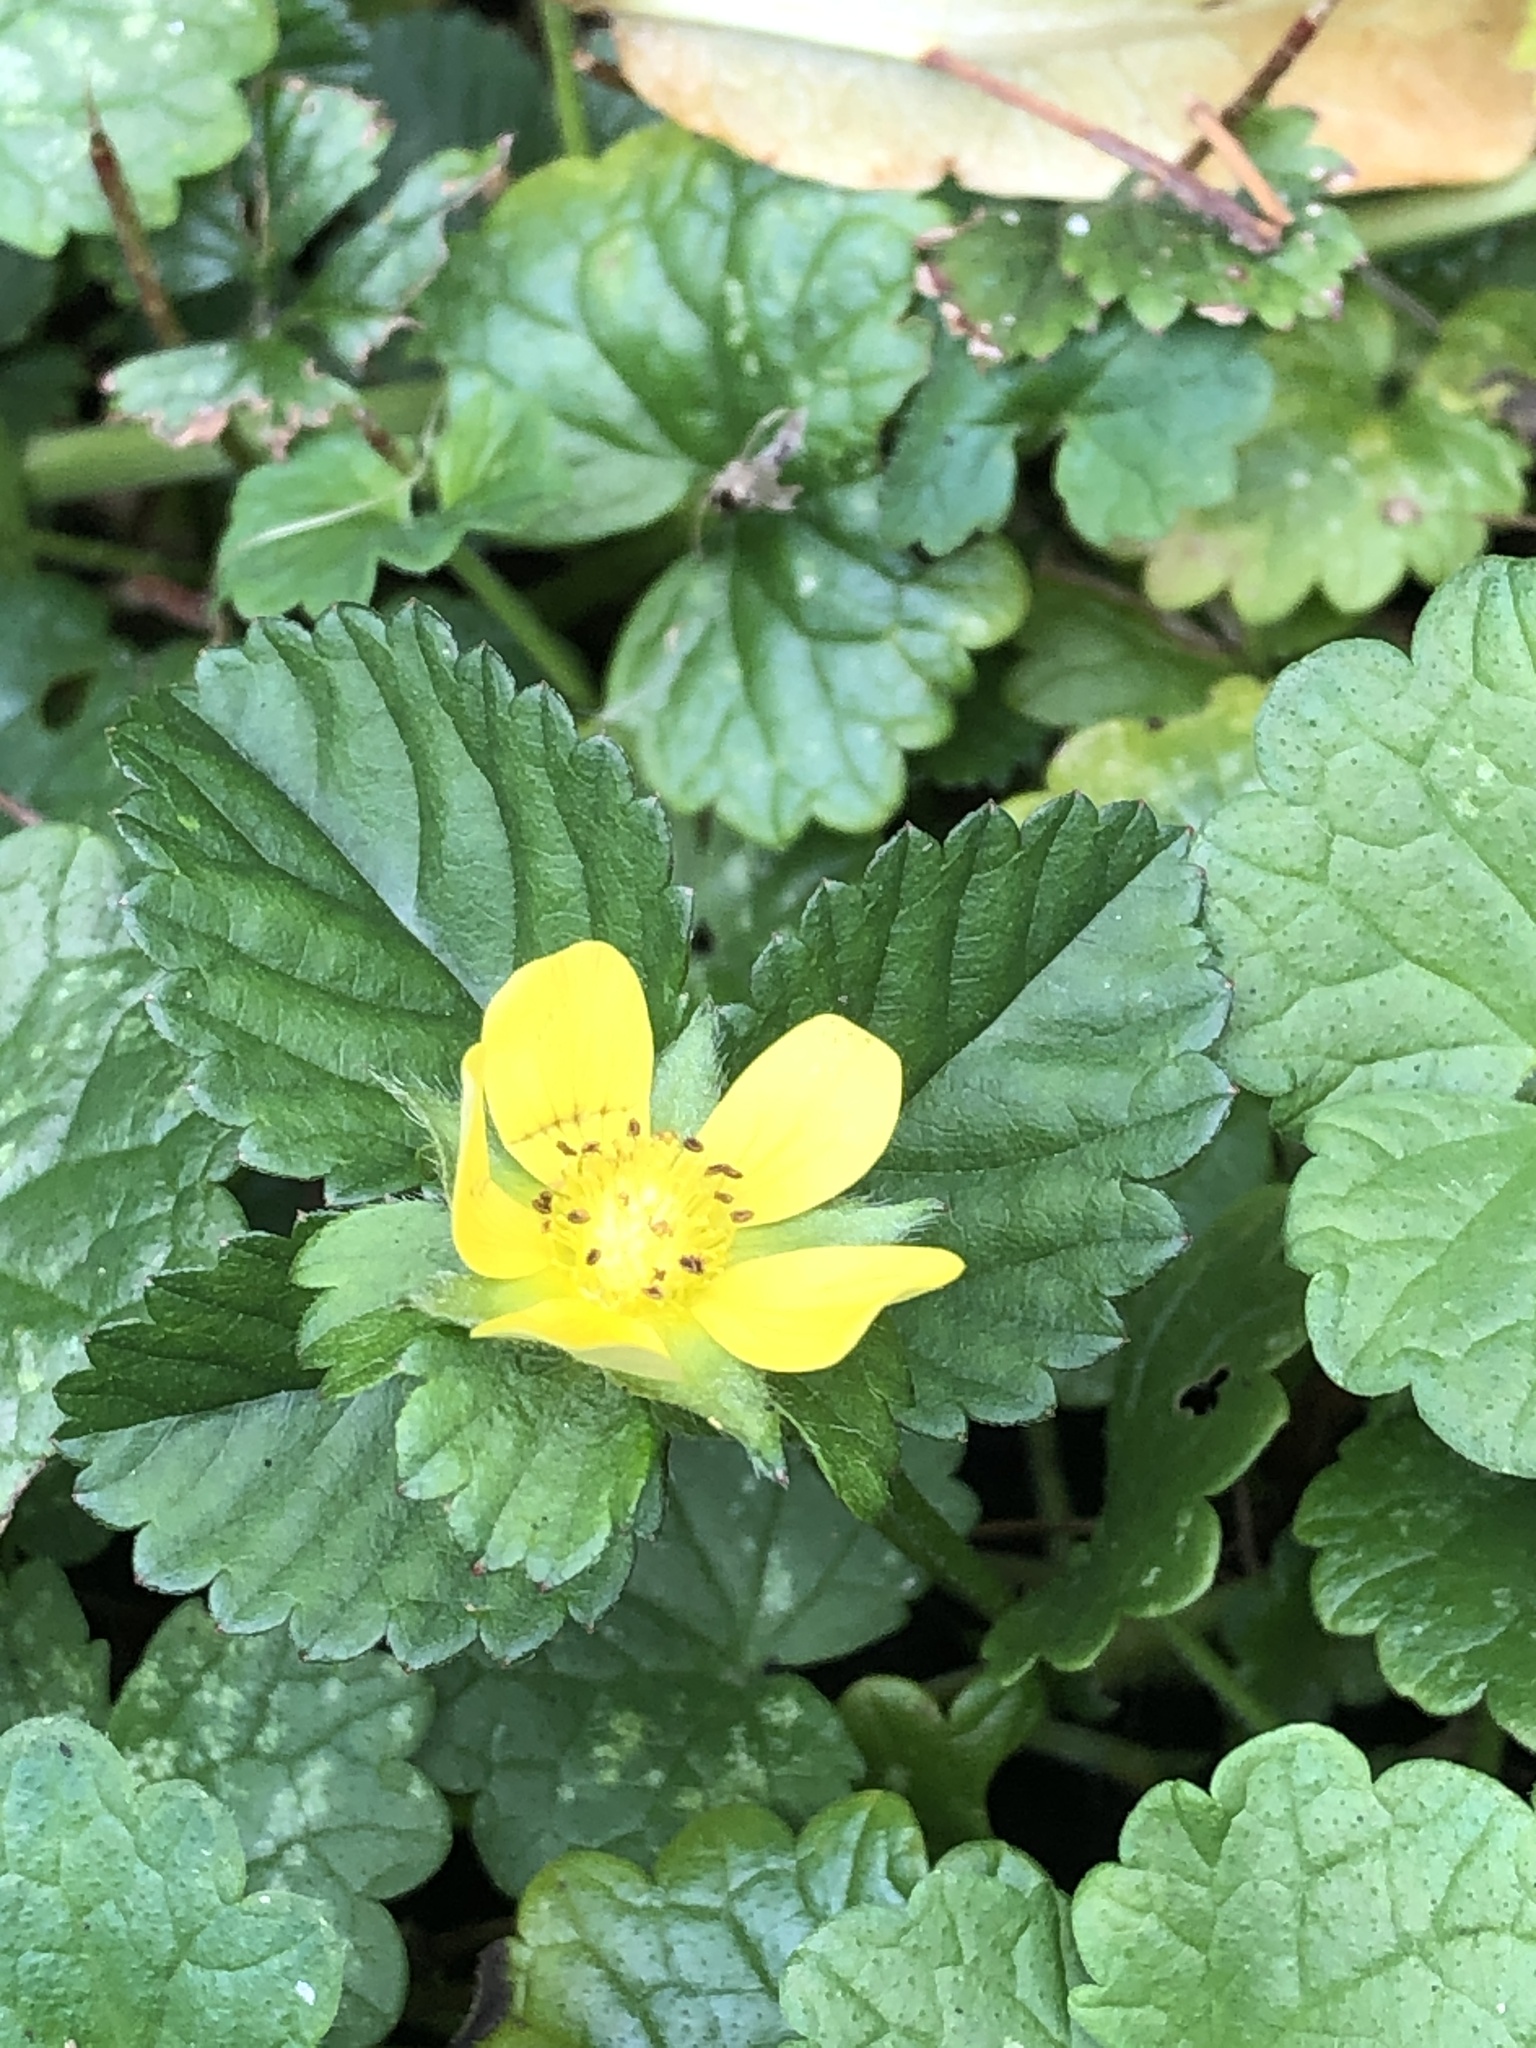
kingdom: Plantae
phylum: Tracheophyta
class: Magnoliopsida
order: Rosales
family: Rosaceae
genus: Potentilla
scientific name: Potentilla indica
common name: Yellow-flowered strawberry
